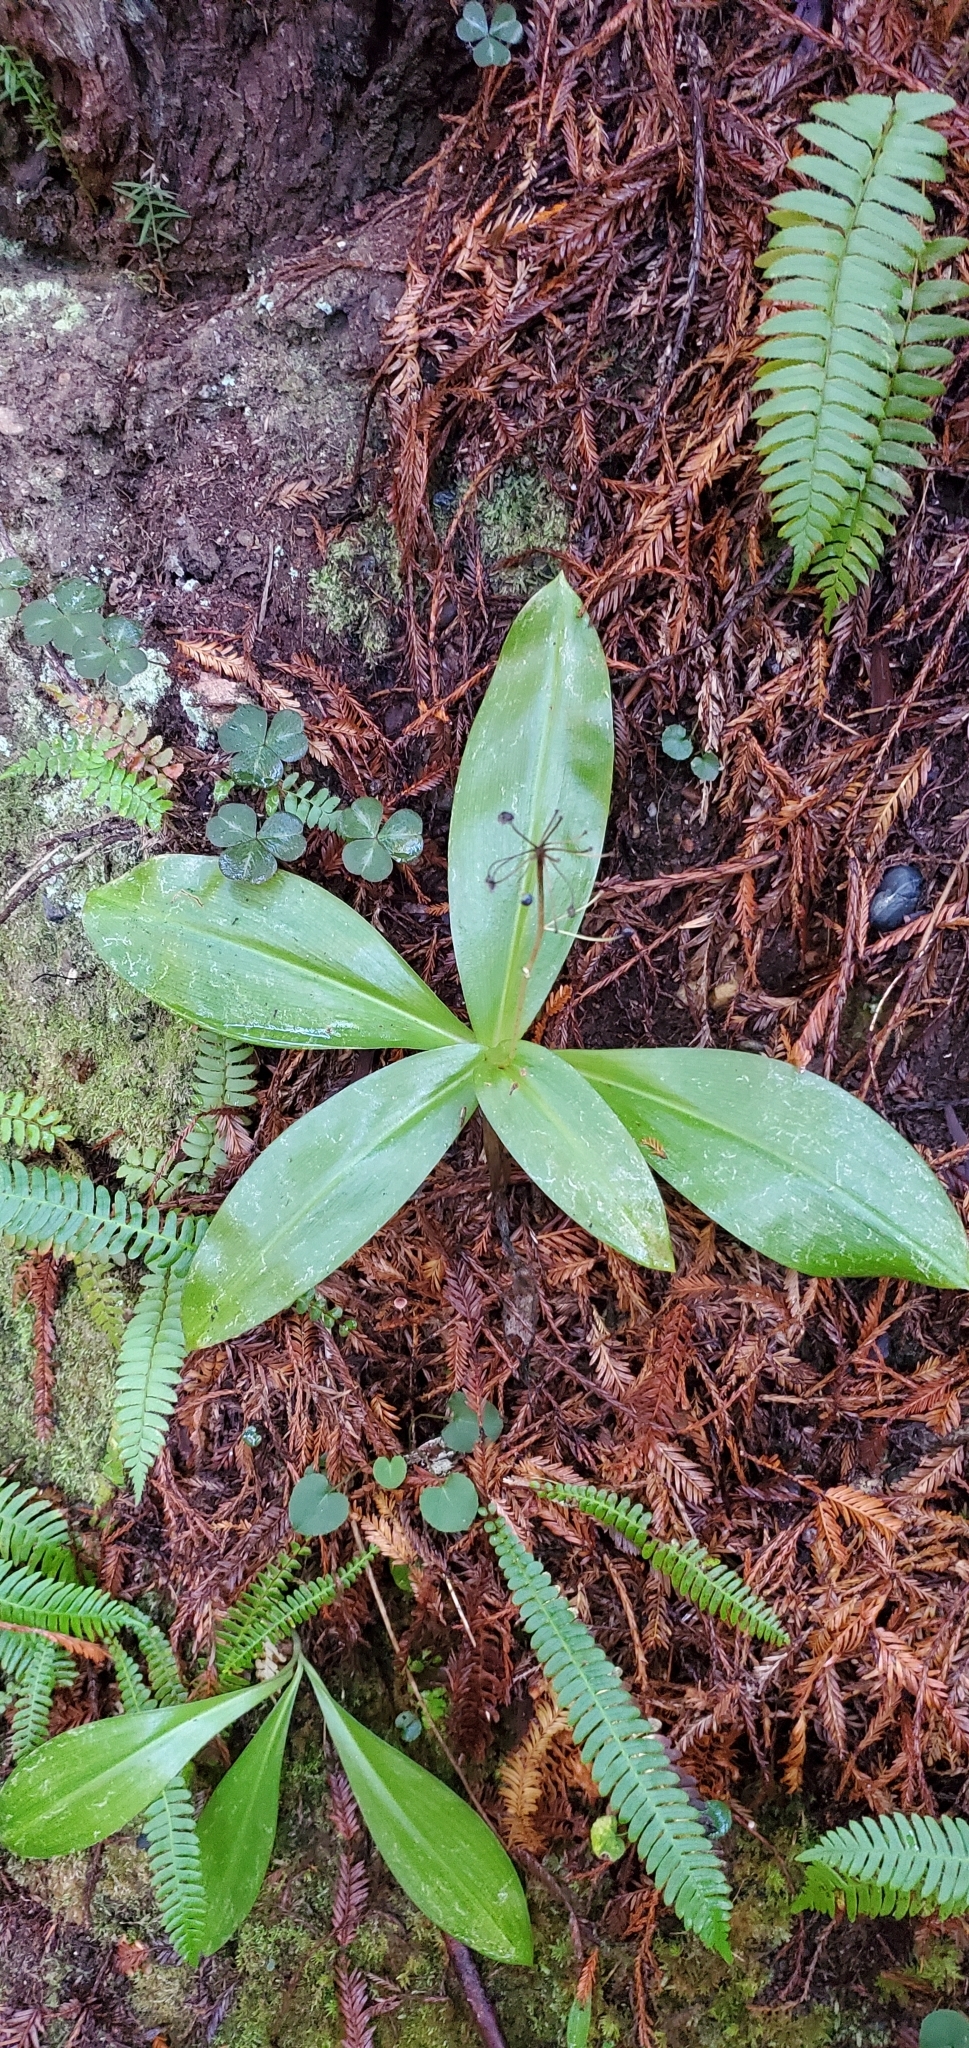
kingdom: Plantae
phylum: Tracheophyta
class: Liliopsida
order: Liliales
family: Liliaceae
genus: Clintonia
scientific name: Clintonia andrewsiana
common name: Red clintonia
